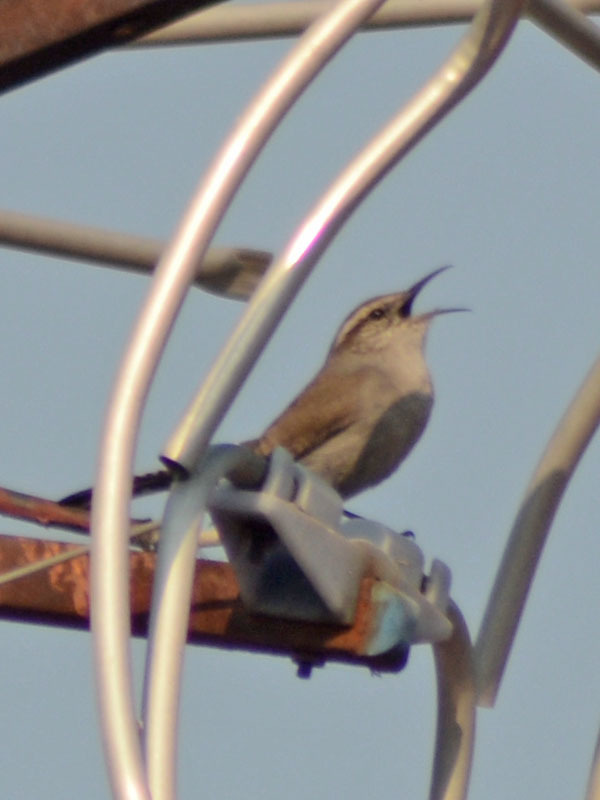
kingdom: Animalia
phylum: Chordata
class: Aves
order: Passeriformes
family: Troglodytidae
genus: Thryomanes
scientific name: Thryomanes bewickii
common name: Bewick's wren
